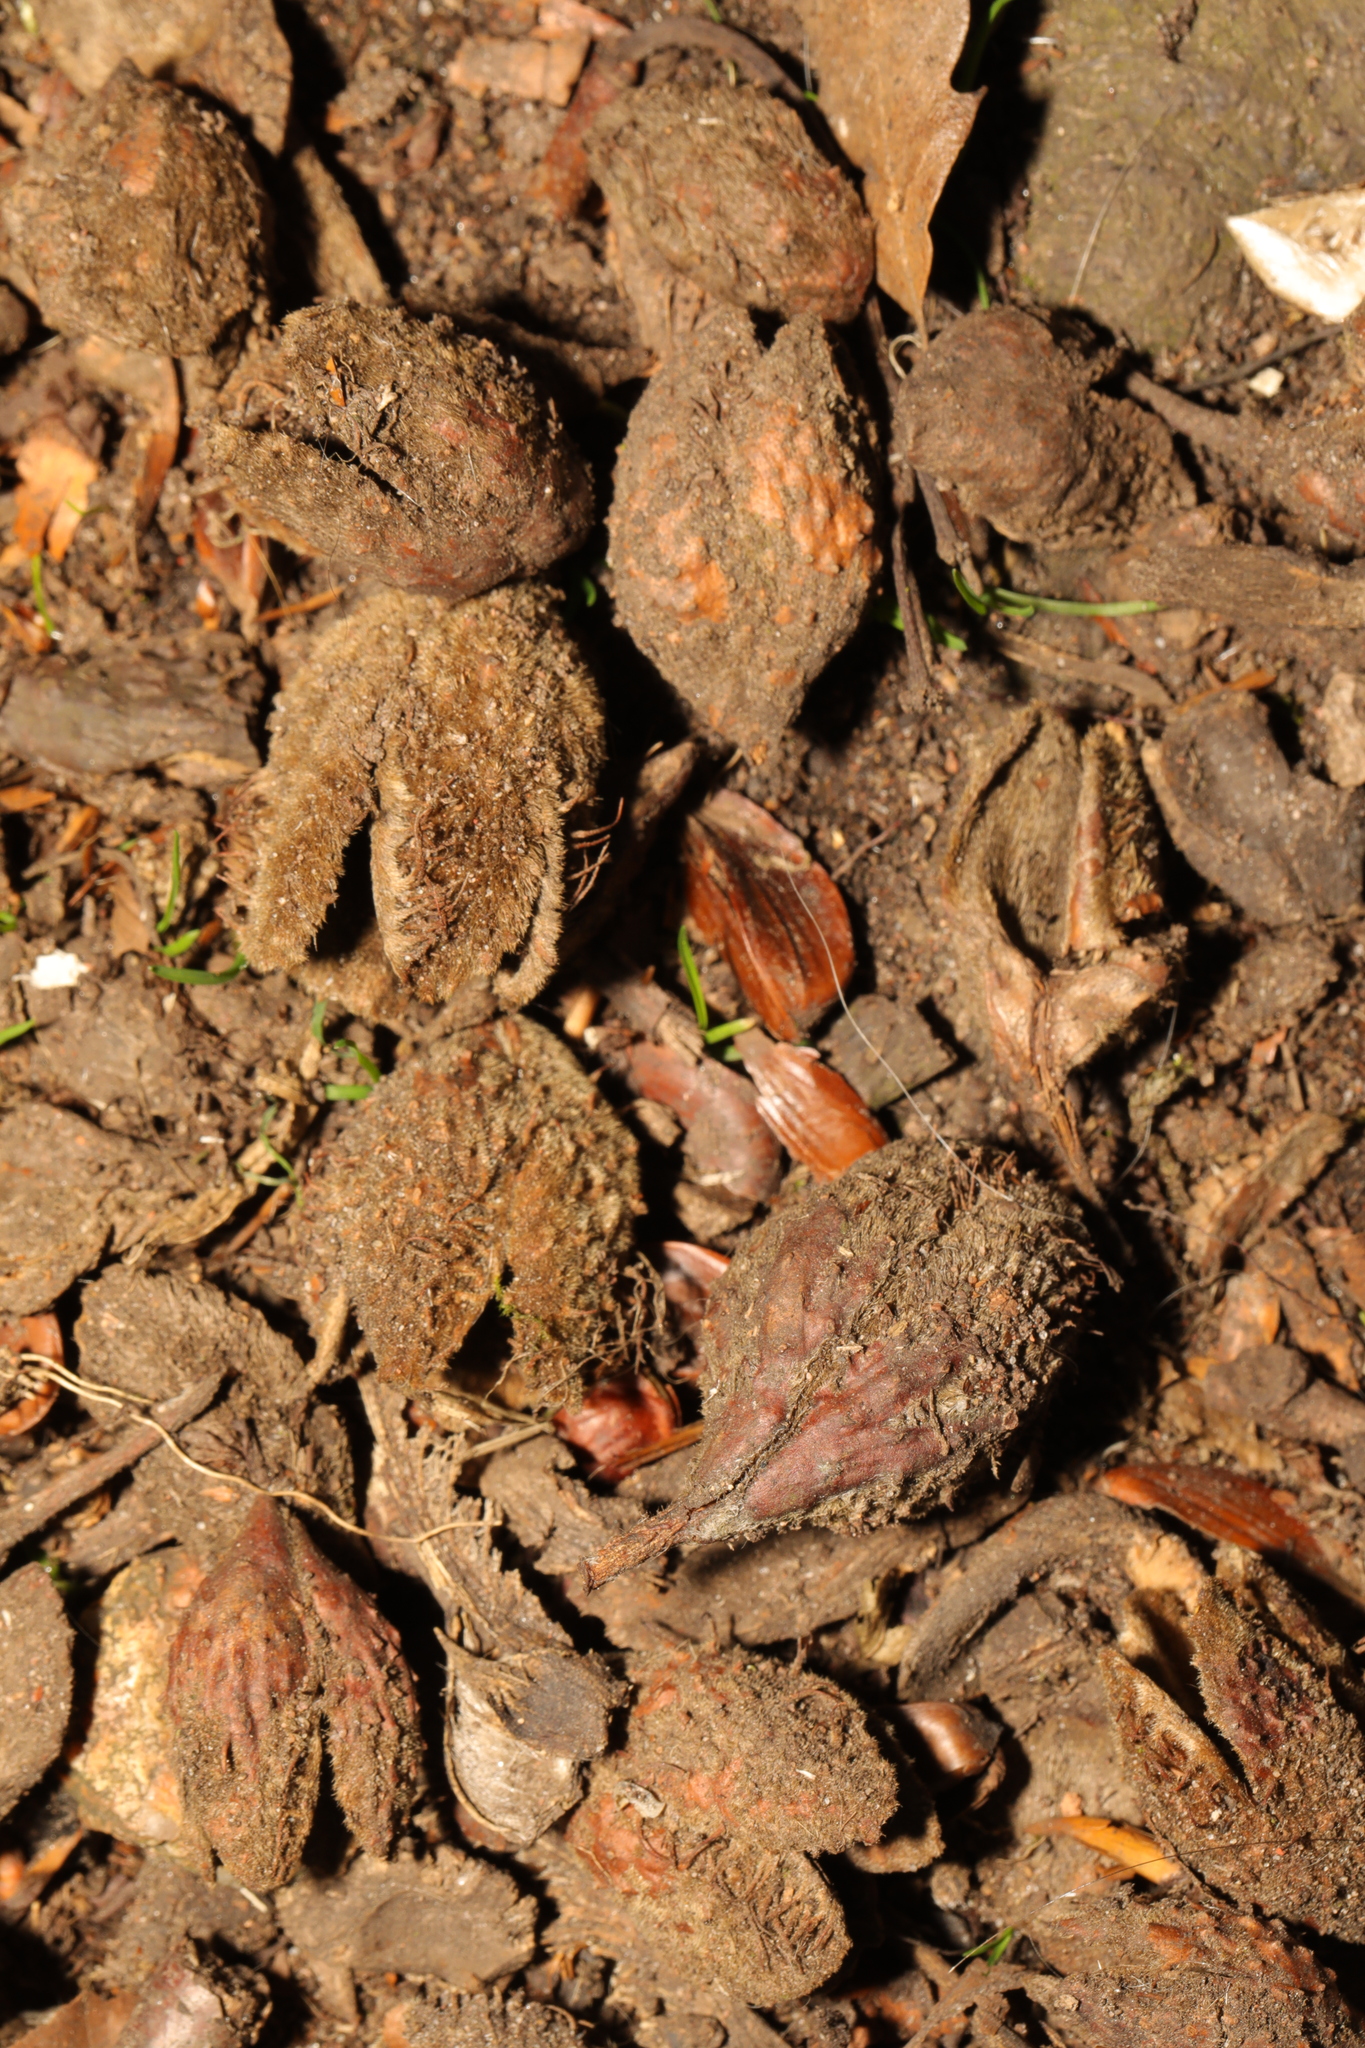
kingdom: Plantae
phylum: Tracheophyta
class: Magnoliopsida
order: Fagales
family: Fagaceae
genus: Fagus
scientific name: Fagus sylvatica
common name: Beech
